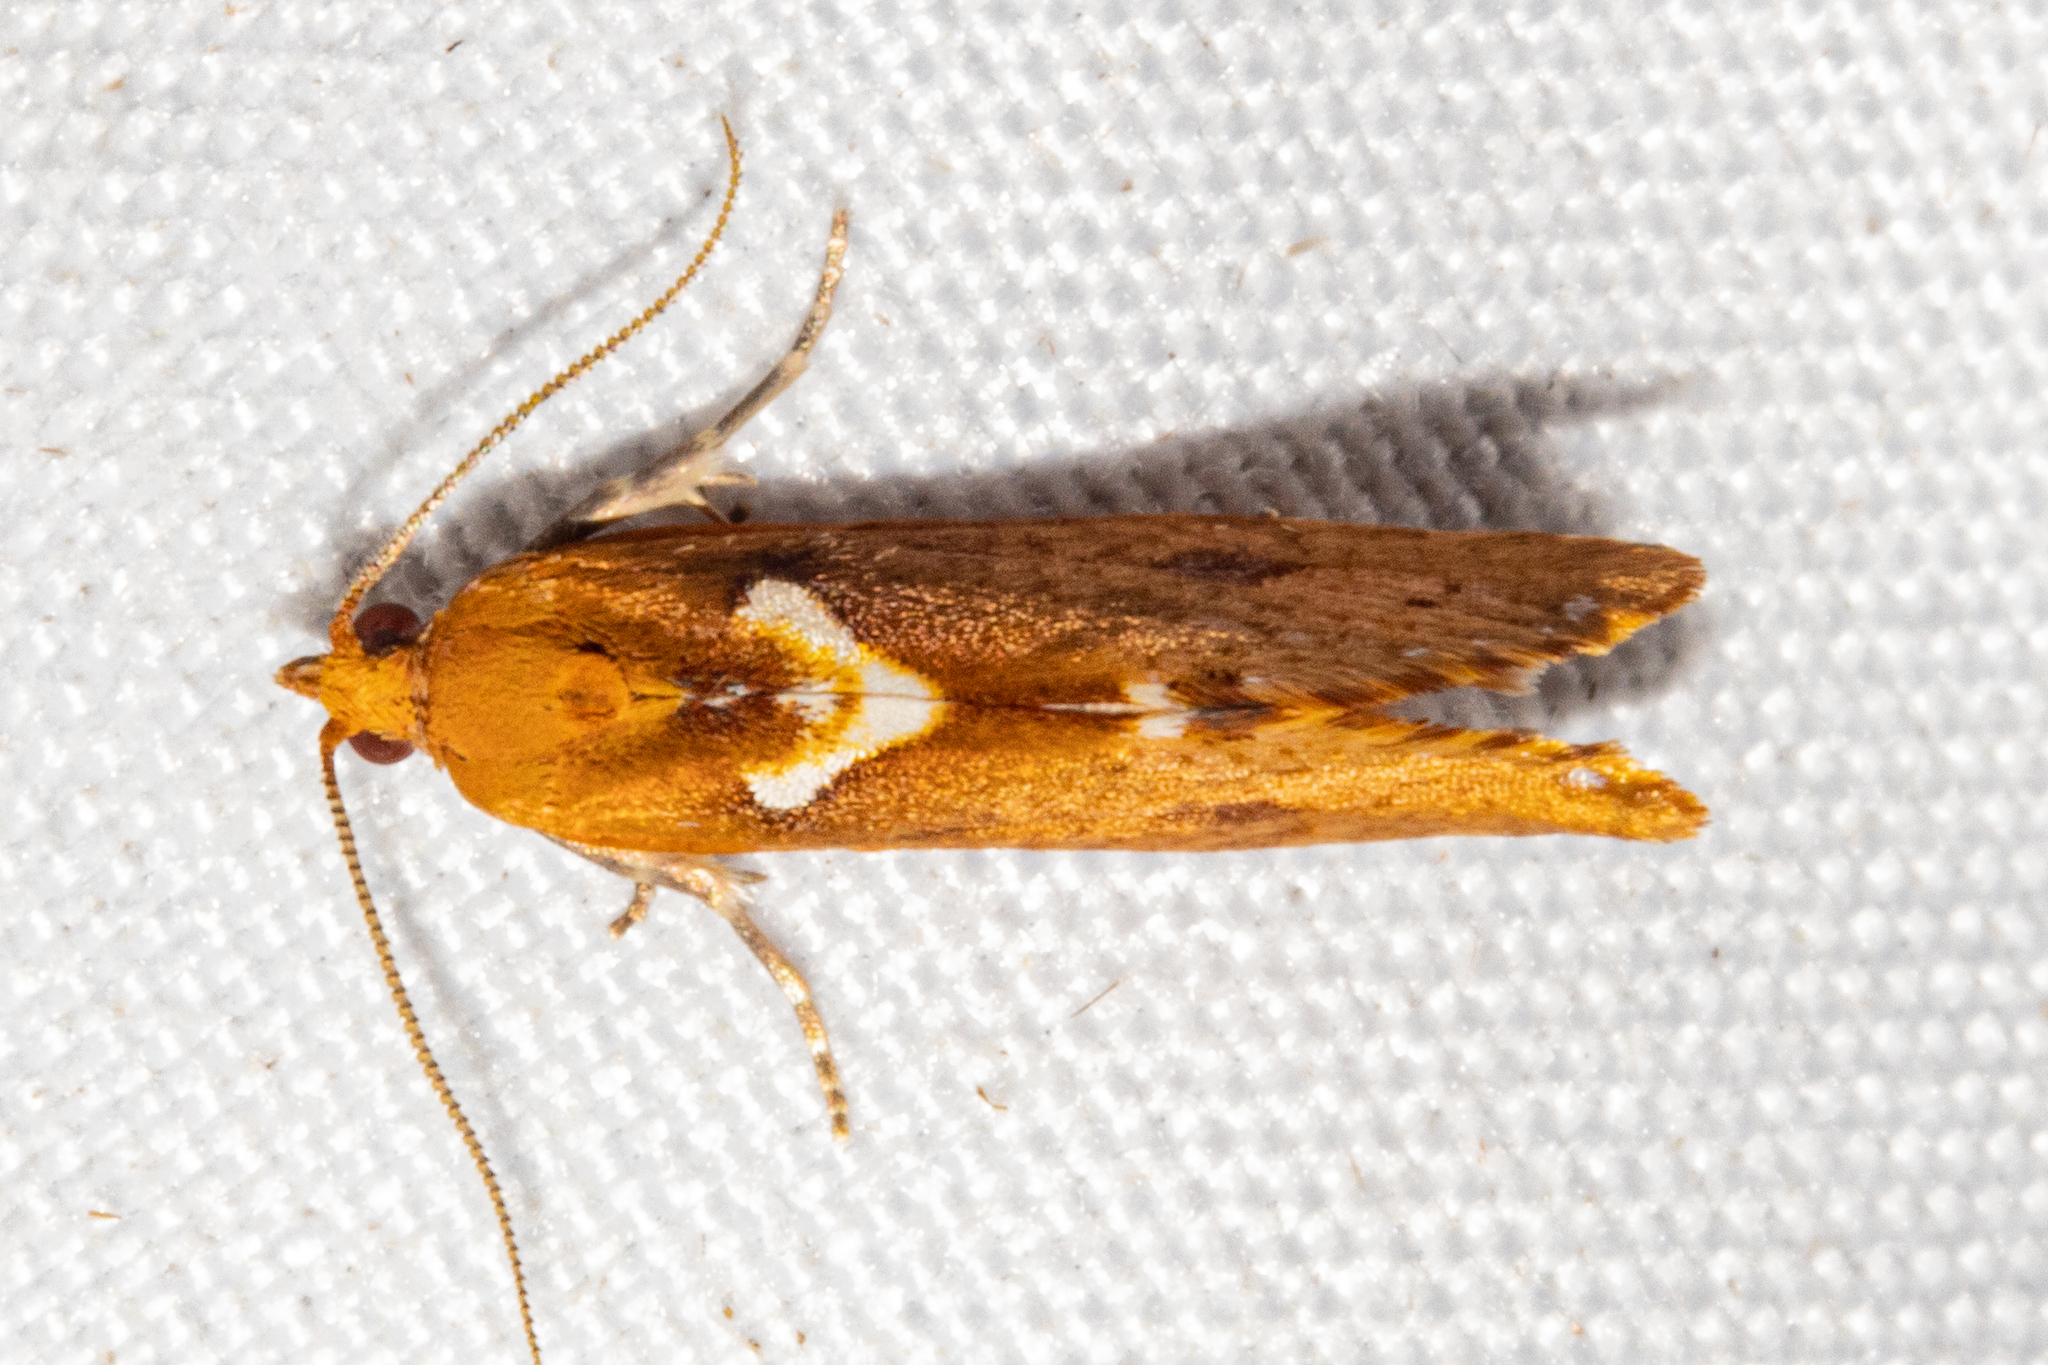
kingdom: Animalia
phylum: Arthropoda
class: Insecta
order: Lepidoptera
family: Tortricidae
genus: Pyrgotis
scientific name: Pyrgotis pyramidias
